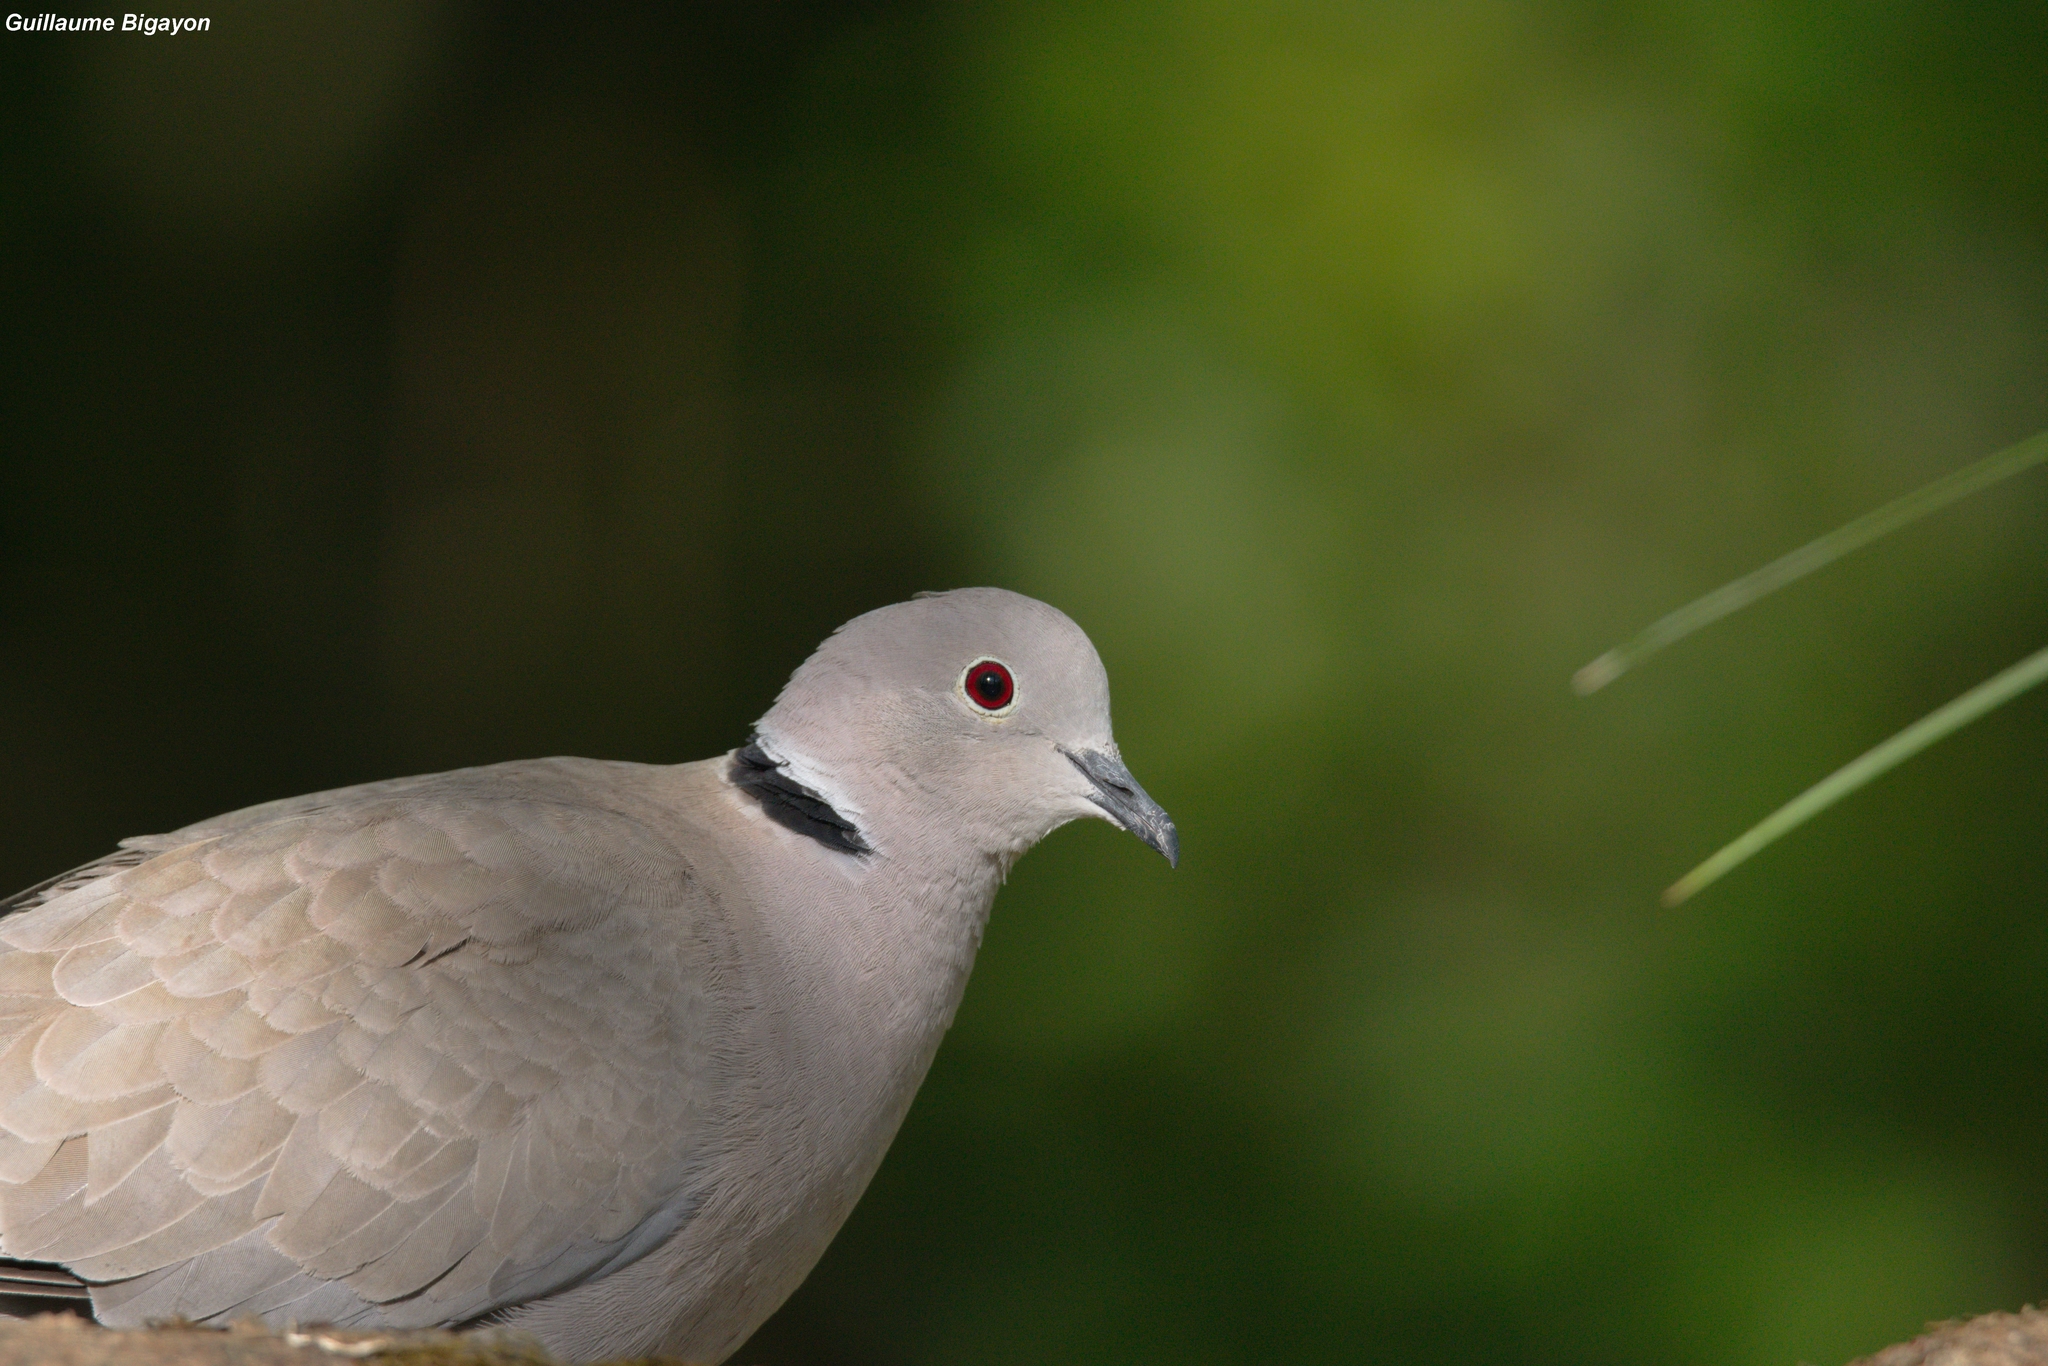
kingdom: Animalia
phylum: Chordata
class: Aves
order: Columbiformes
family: Columbidae
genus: Streptopelia
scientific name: Streptopelia decaocto
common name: Eurasian collared dove
